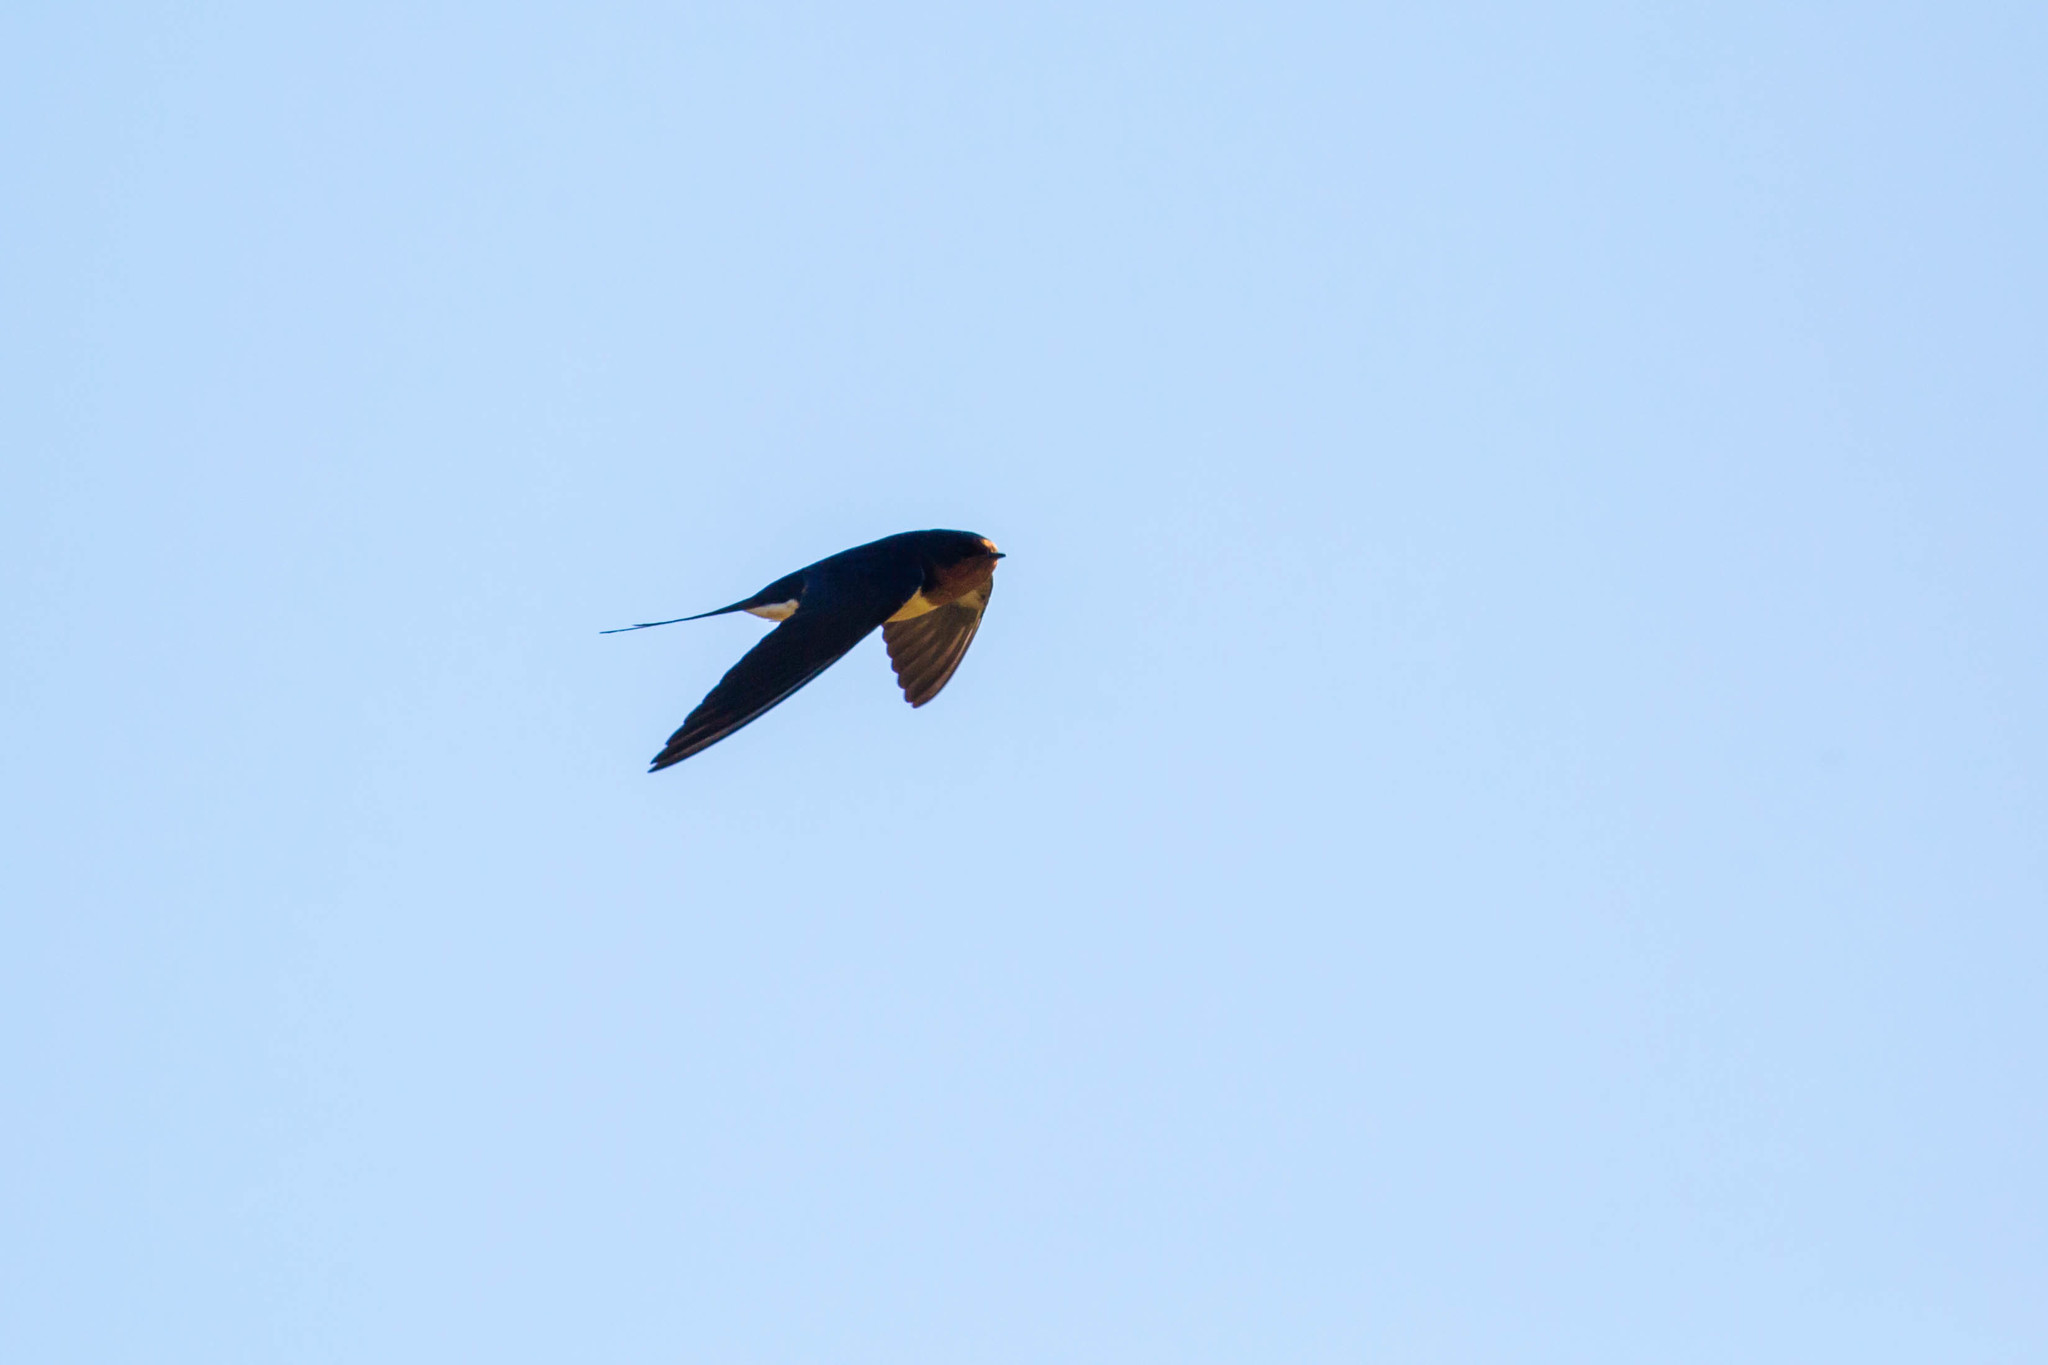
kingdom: Animalia
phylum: Chordata
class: Aves
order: Passeriformes
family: Hirundinidae
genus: Hirundo
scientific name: Hirundo rustica
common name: Barn swallow
